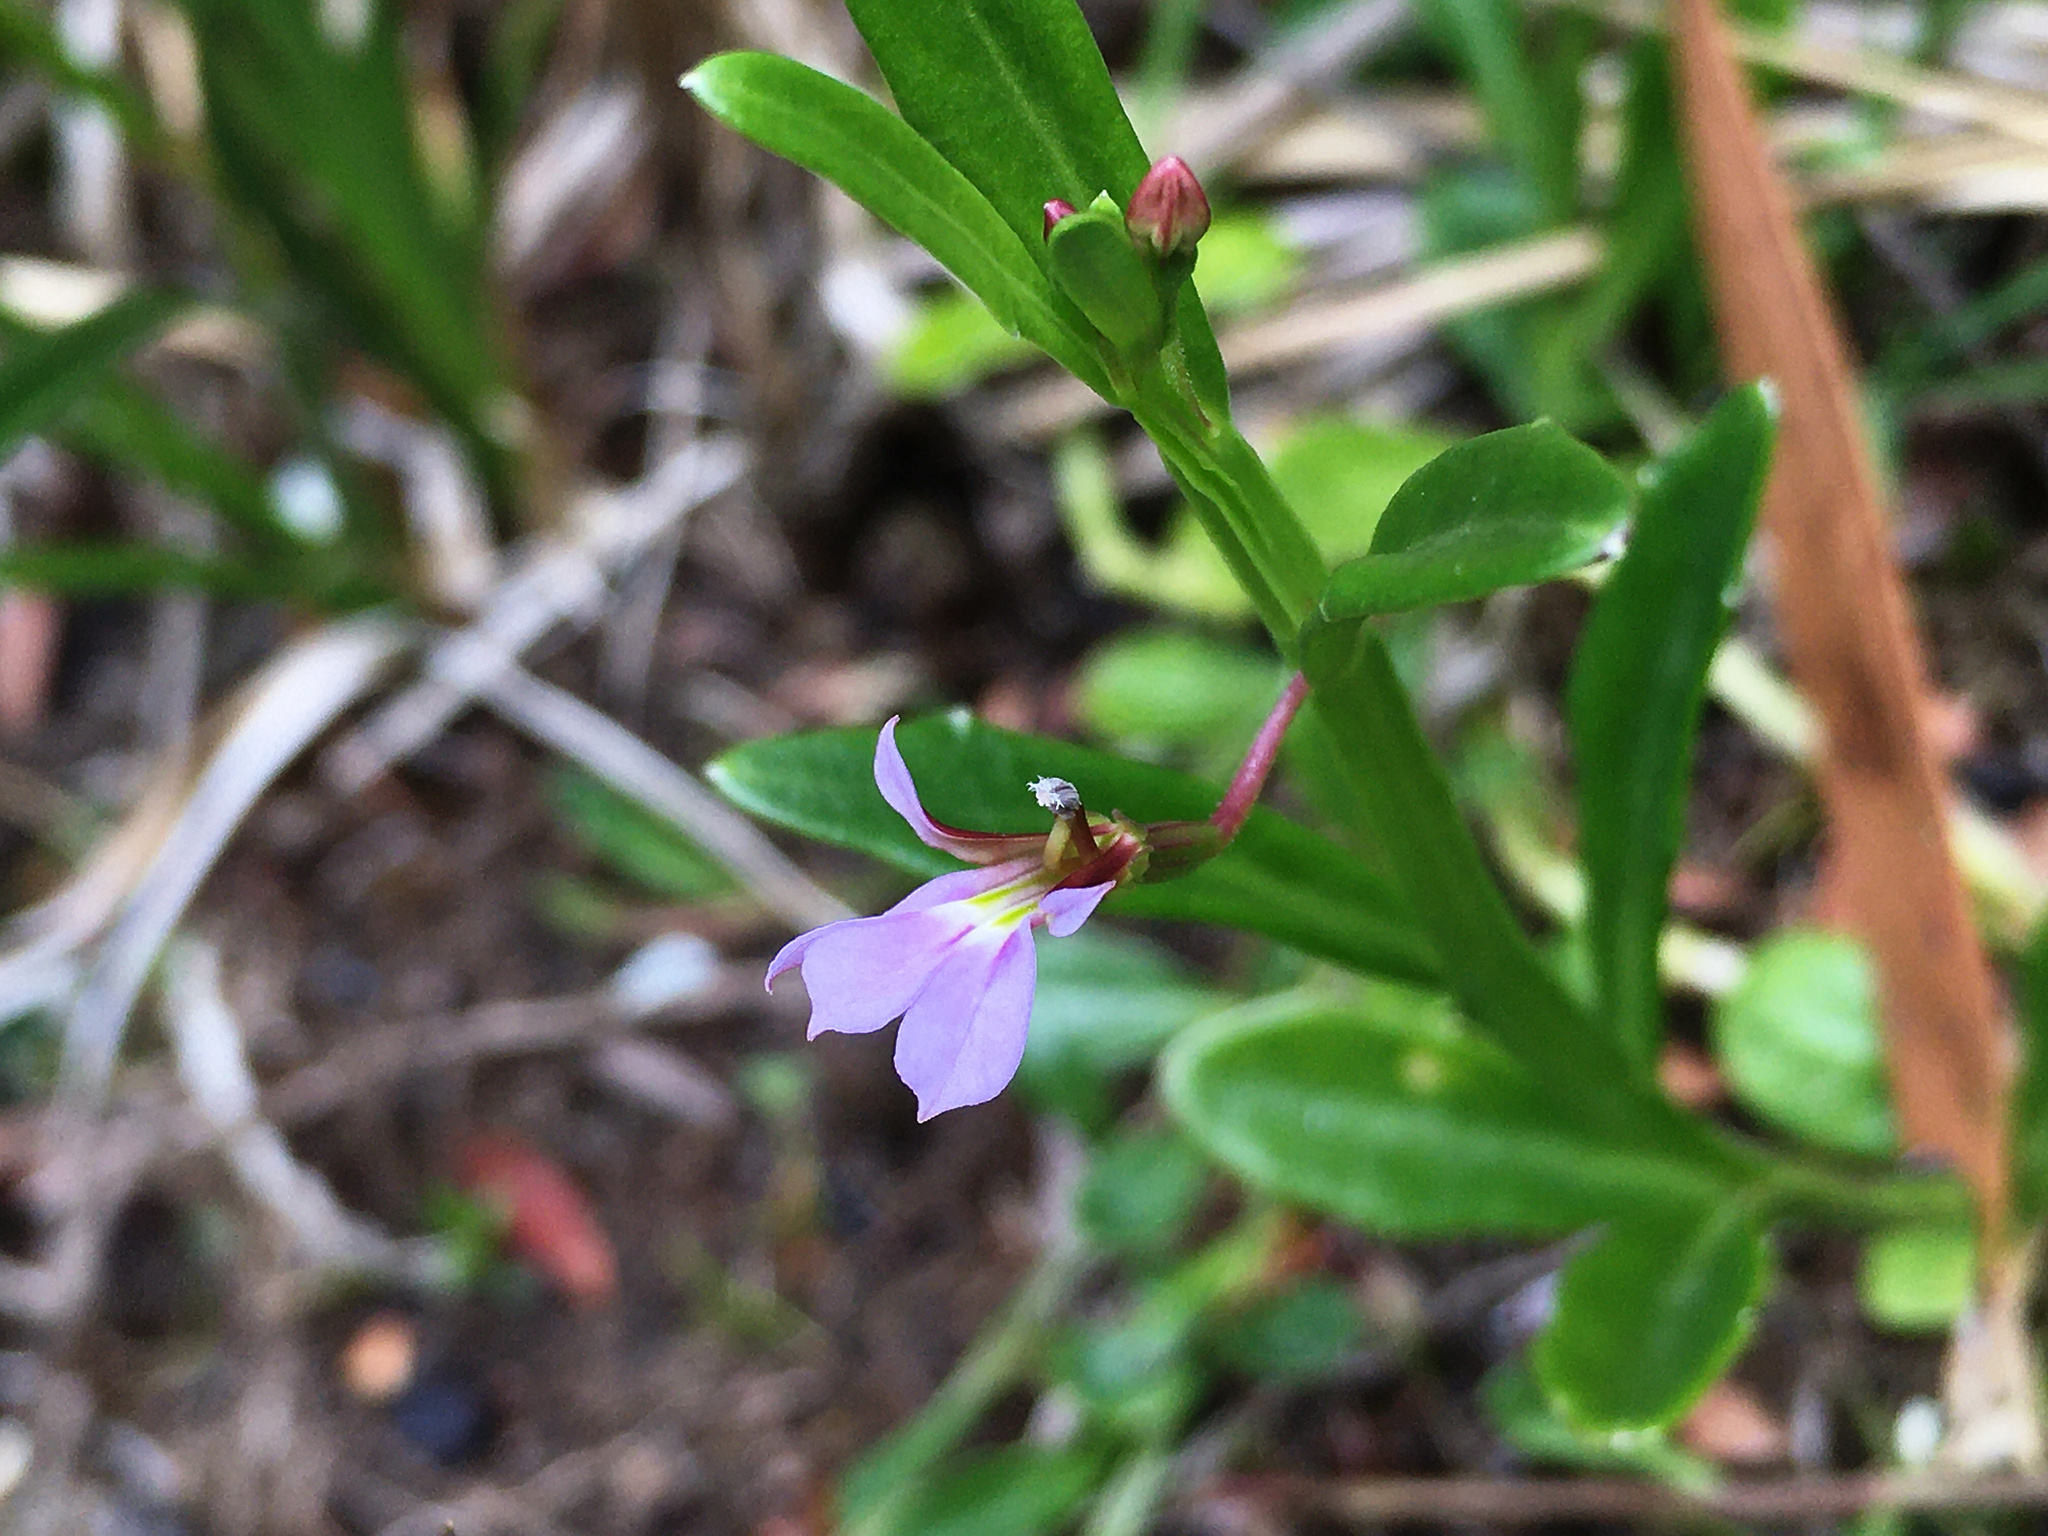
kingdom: Plantae
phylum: Tracheophyta
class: Magnoliopsida
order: Asterales
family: Campanulaceae
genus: Lobelia
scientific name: Lobelia anceps
